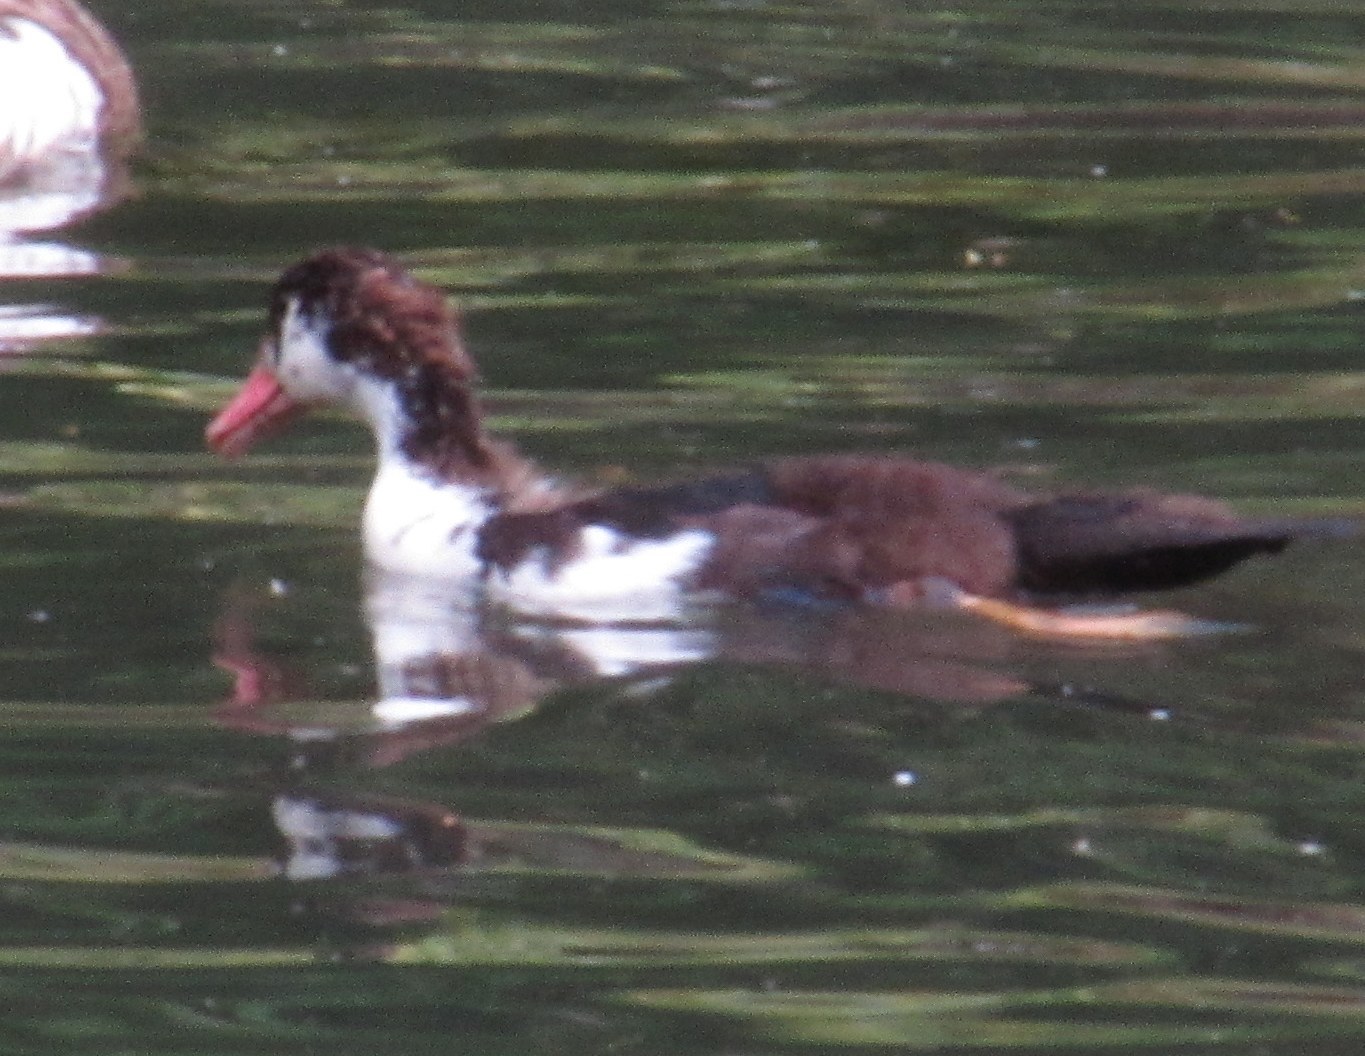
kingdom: Animalia
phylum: Chordata
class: Aves
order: Anseriformes
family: Anatidae
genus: Cairina
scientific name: Cairina moschata
